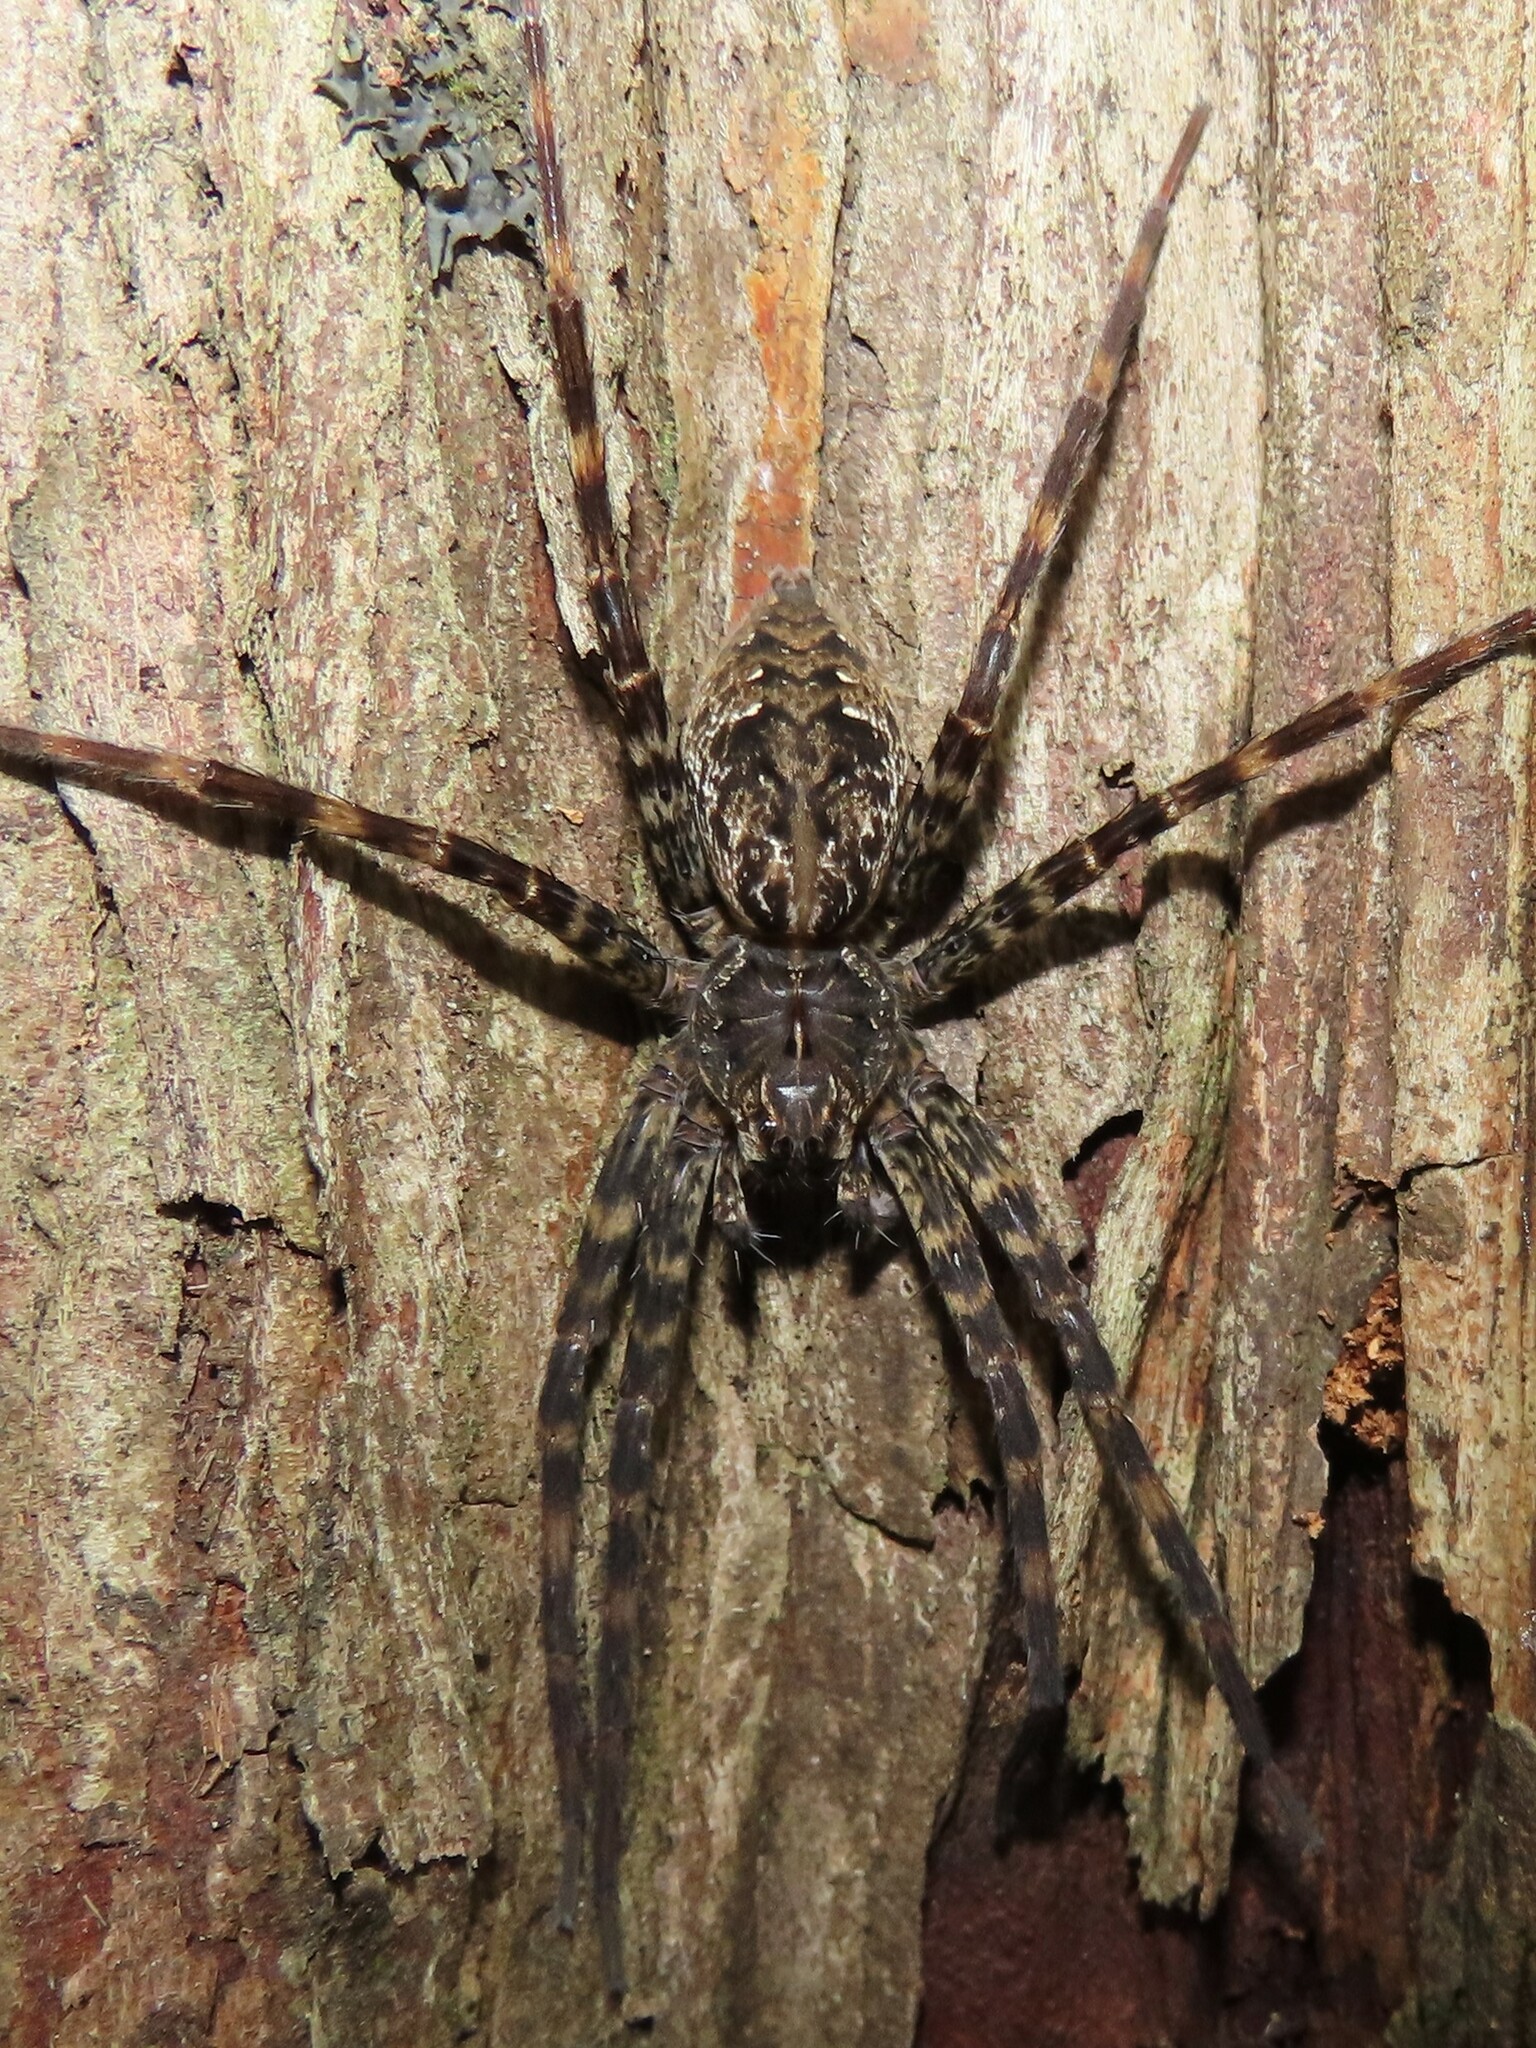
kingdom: Animalia
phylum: Arthropoda
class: Arachnida
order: Araneae
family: Pisauridae
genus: Dolomedes
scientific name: Dolomedes okefinokensis
